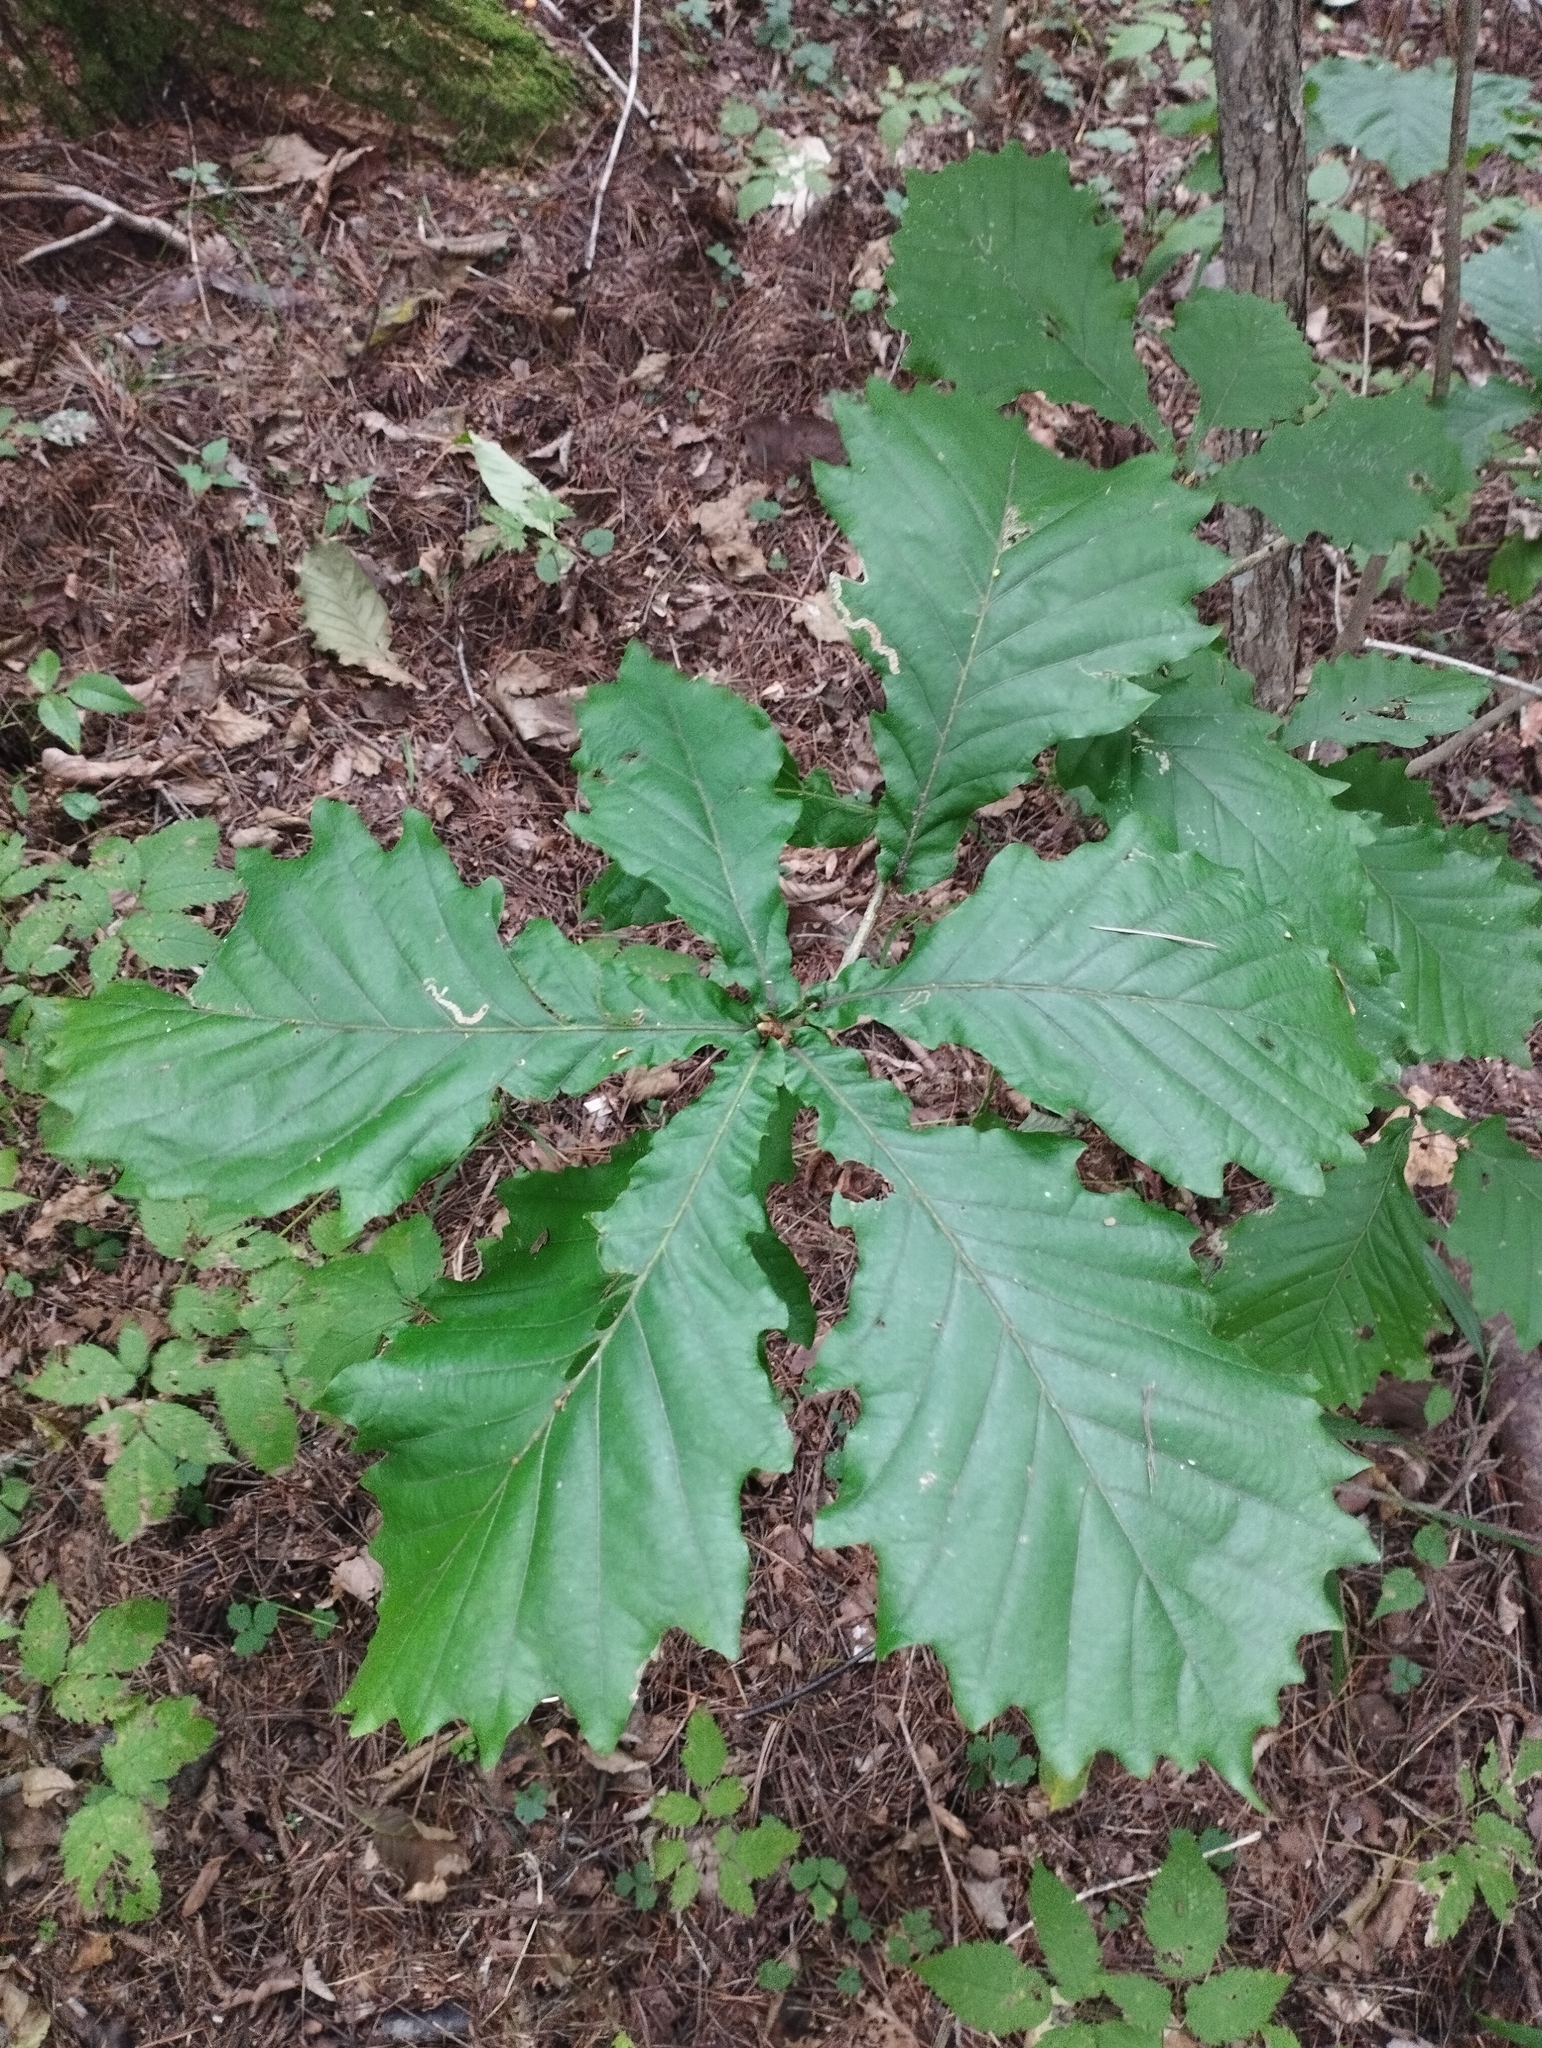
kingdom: Plantae
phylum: Tracheophyta
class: Magnoliopsida
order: Fagales
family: Fagaceae
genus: Quercus
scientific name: Quercus mongolica
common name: Mongolian oak
